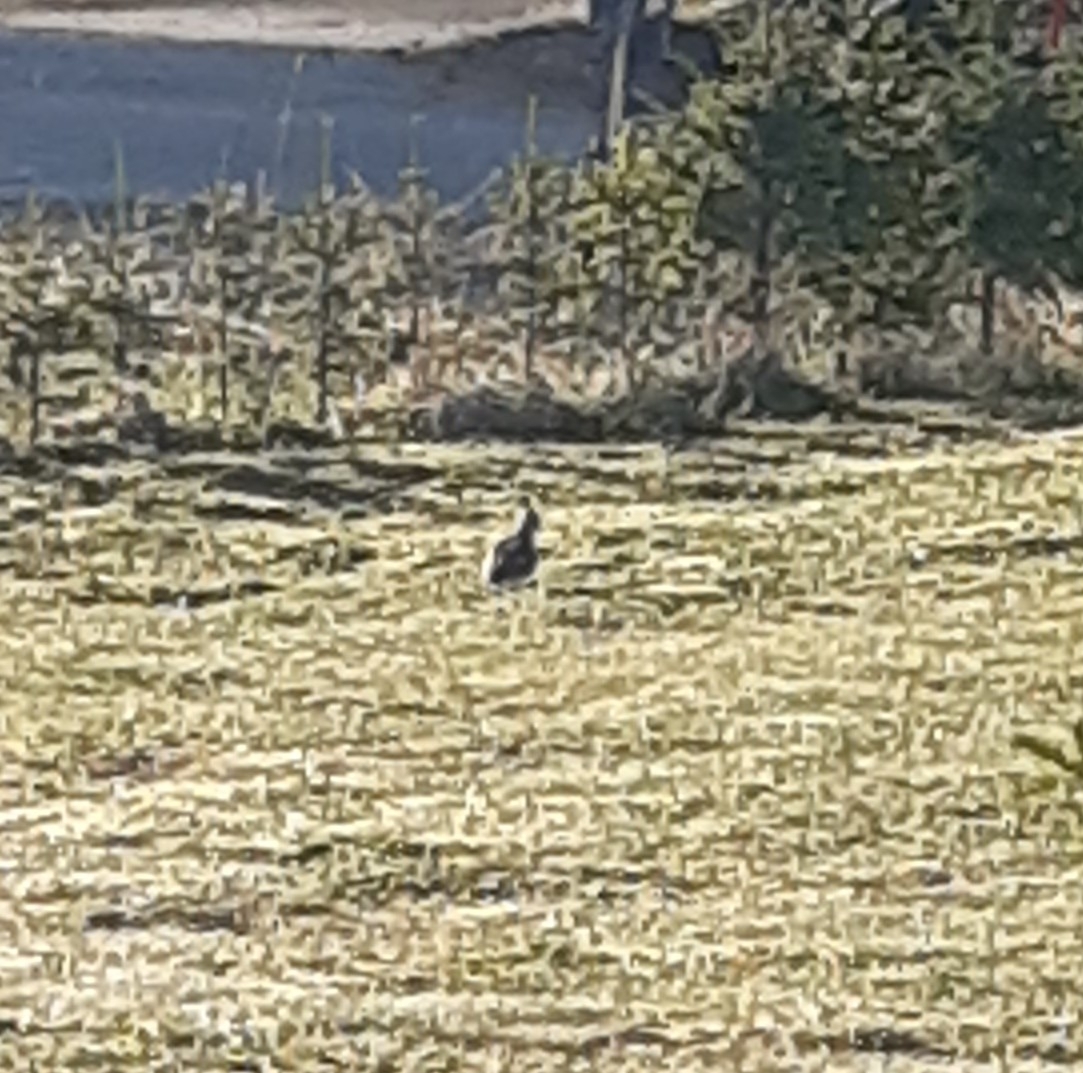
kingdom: Animalia
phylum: Chordata
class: Aves
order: Charadriiformes
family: Charadriidae
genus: Vanellus
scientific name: Vanellus vanellus
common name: Northern lapwing
